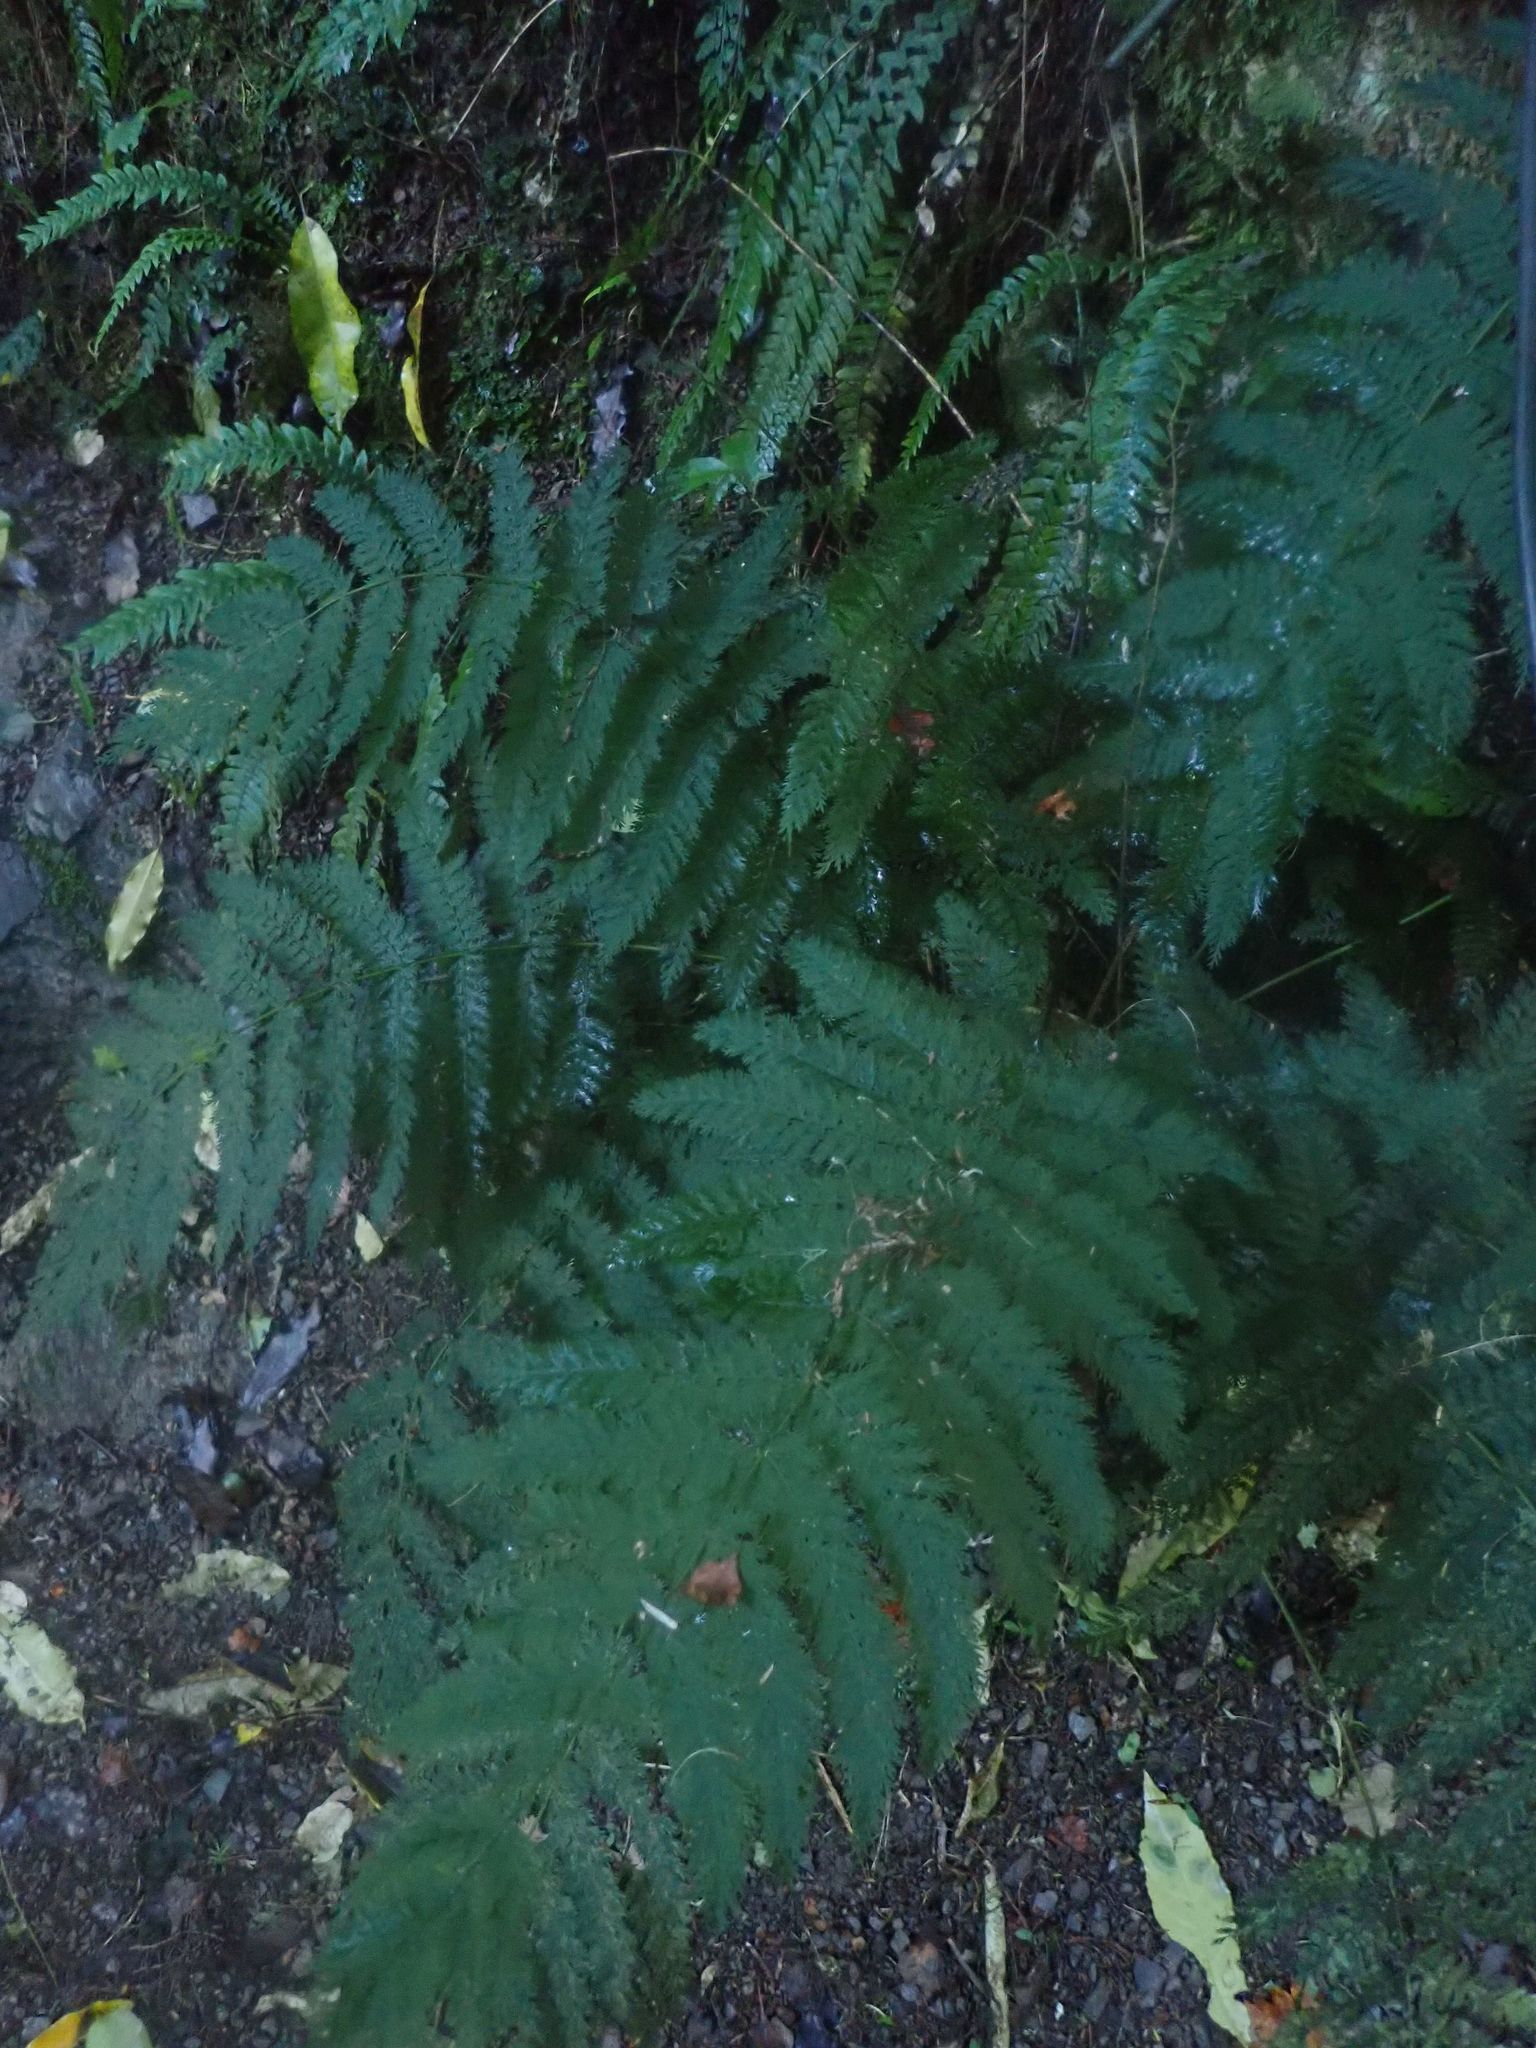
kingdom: Plantae
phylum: Tracheophyta
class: Polypodiopsida
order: Osmundales
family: Osmundaceae
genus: Leptopteris
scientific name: Leptopteris hymenophylloides
